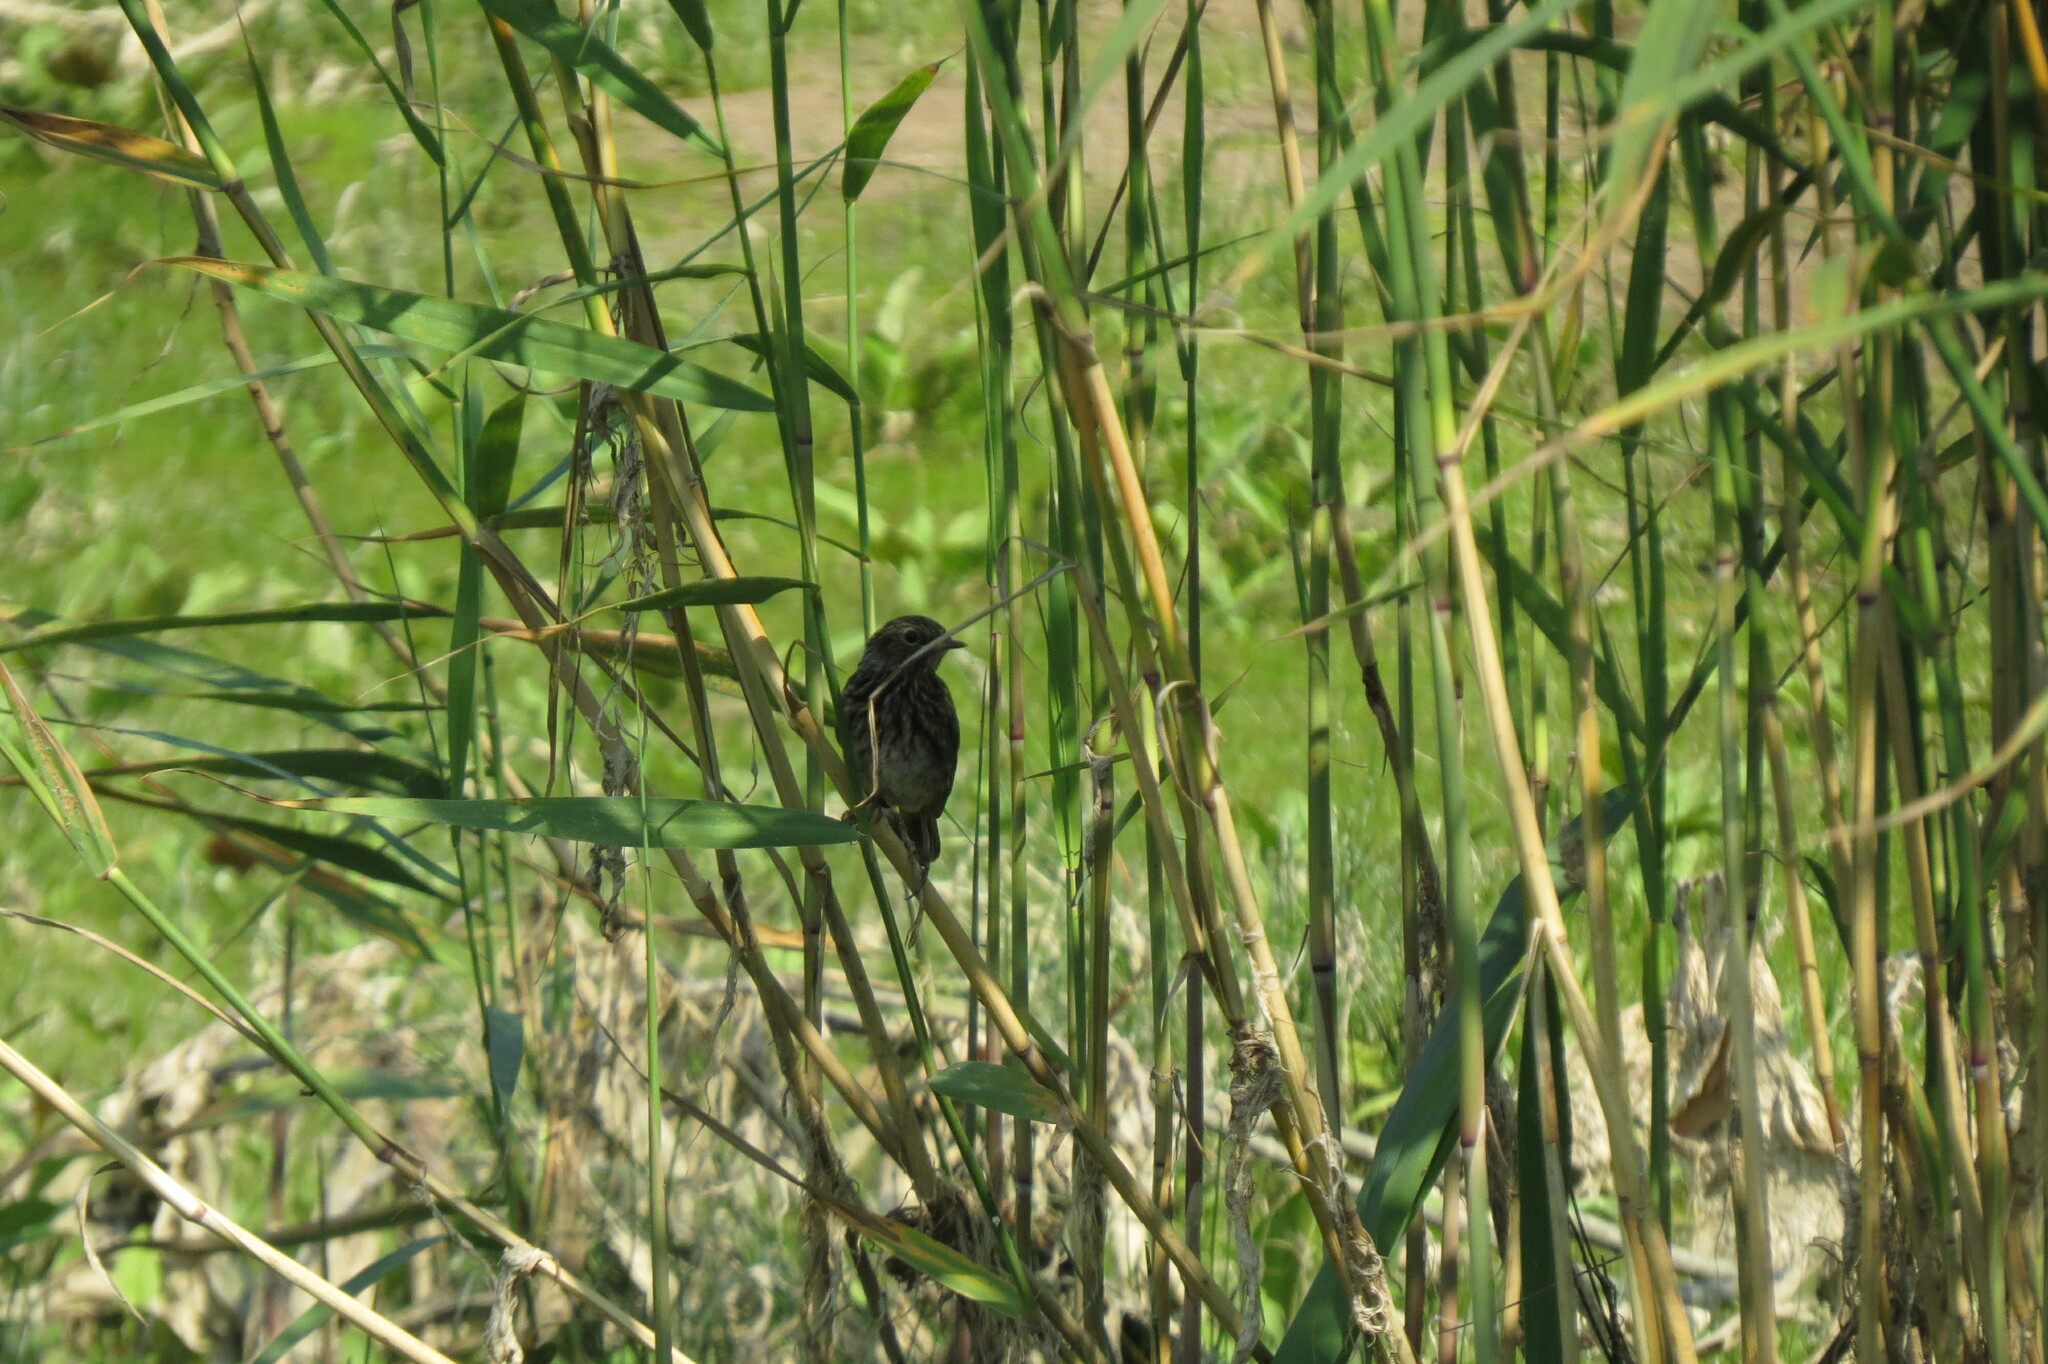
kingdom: Animalia
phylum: Chordata
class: Aves
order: Passeriformes
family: Muscicapidae
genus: Luscinia
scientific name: Luscinia svecica
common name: Bluethroat
